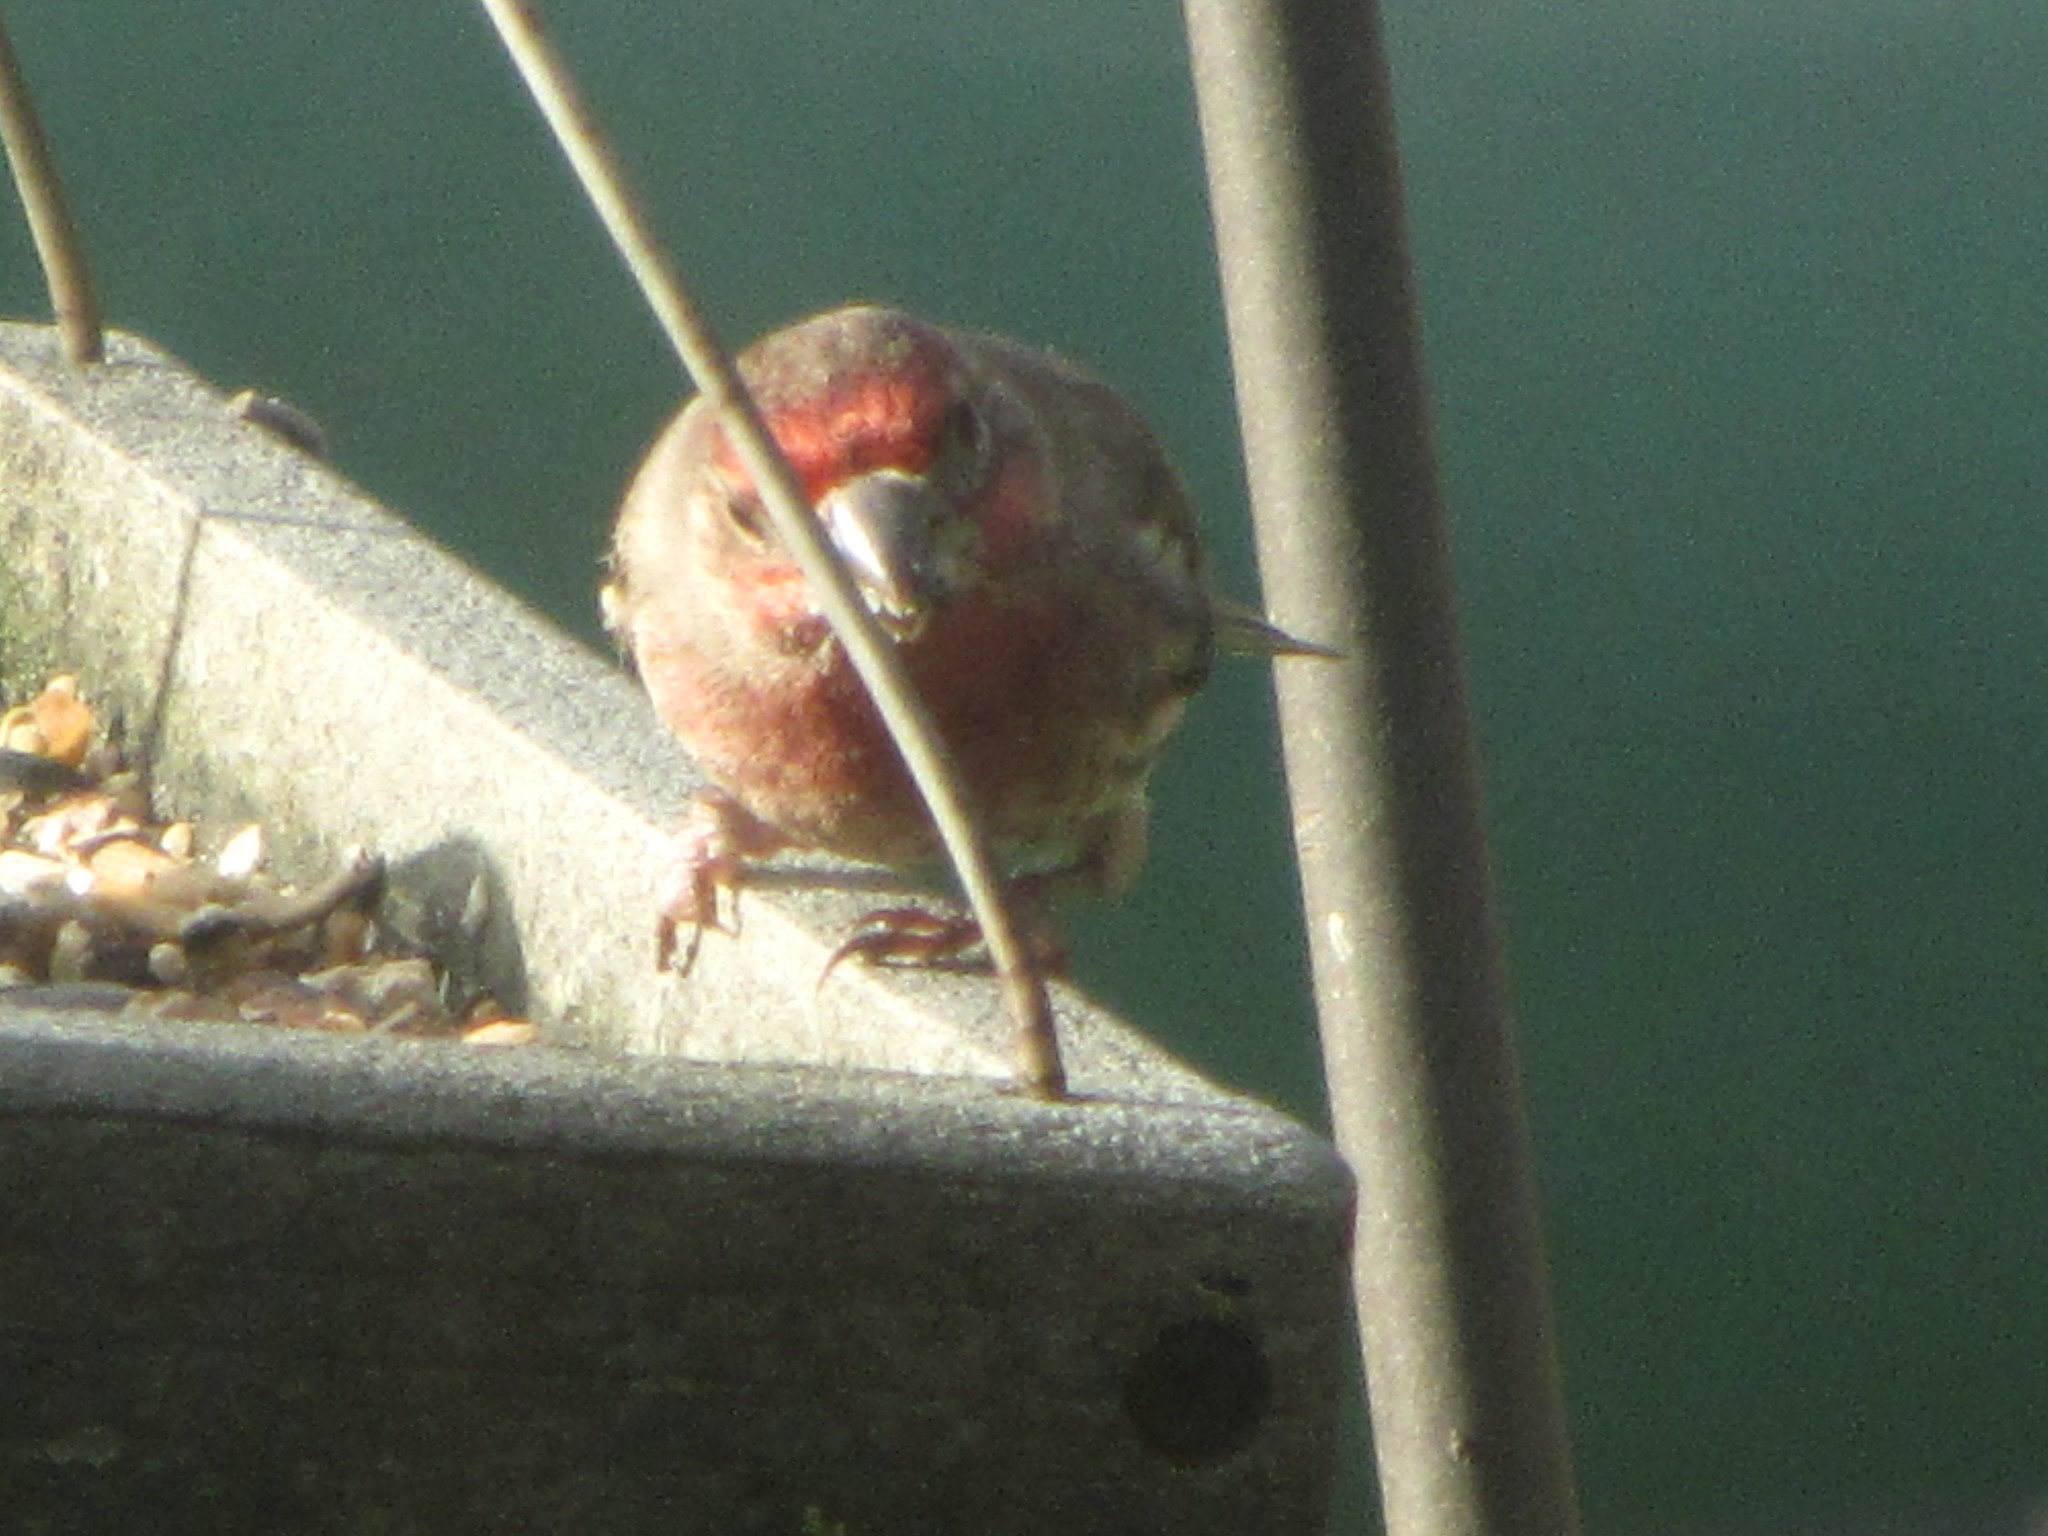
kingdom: Animalia
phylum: Chordata
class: Aves
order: Passeriformes
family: Fringillidae
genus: Haemorhous
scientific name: Haemorhous mexicanus
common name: House finch
